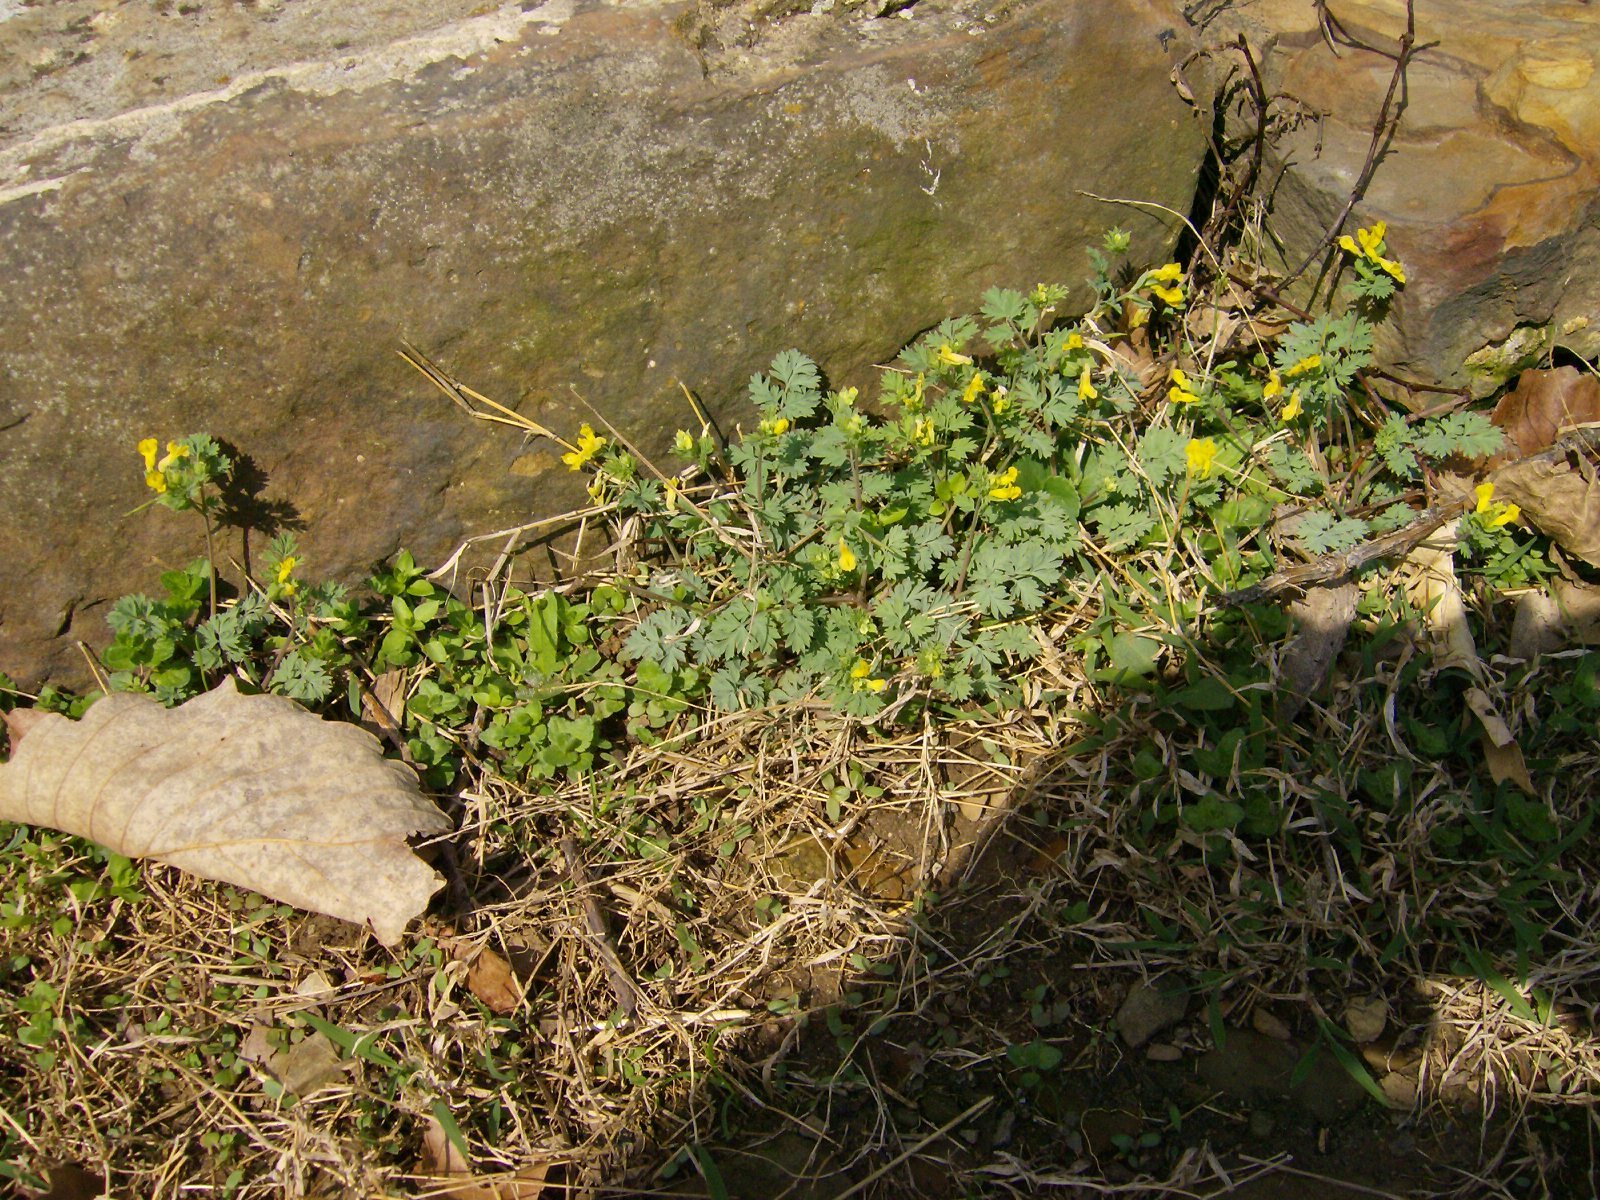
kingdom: Plantae
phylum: Tracheophyta
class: Magnoliopsida
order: Ranunculales
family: Papaveraceae
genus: Corydalis
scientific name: Corydalis flavula
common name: Yellow corydalis
